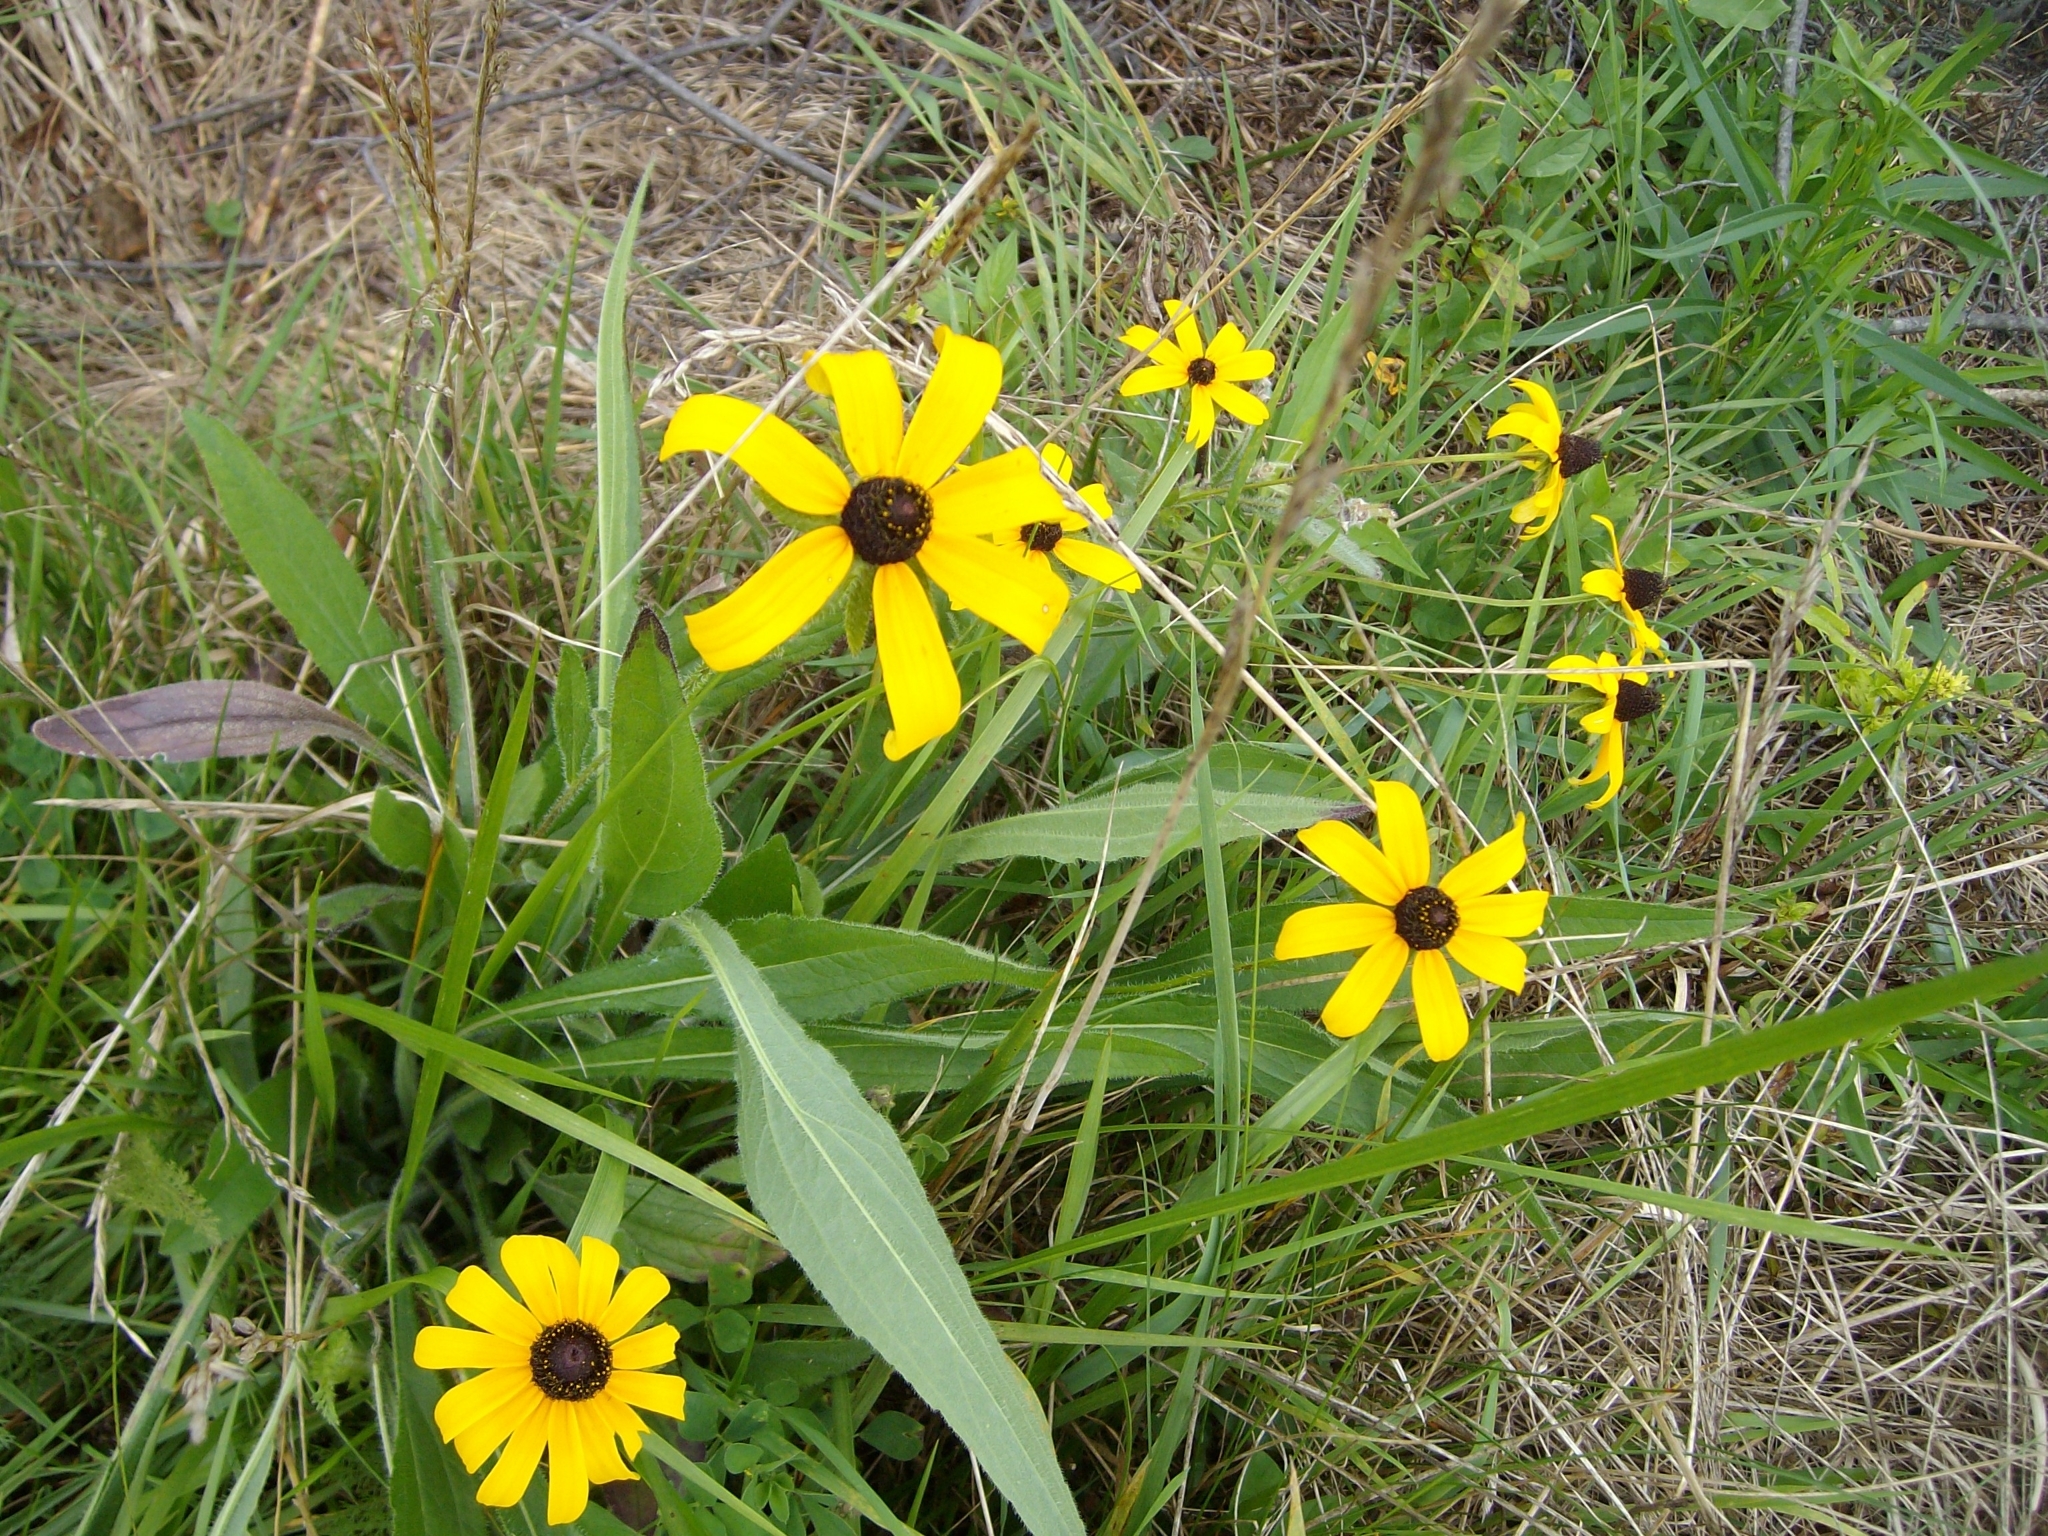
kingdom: Plantae
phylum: Tracheophyta
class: Magnoliopsida
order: Asterales
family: Asteraceae
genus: Rudbeckia
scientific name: Rudbeckia hirta
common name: Black-eyed-susan
